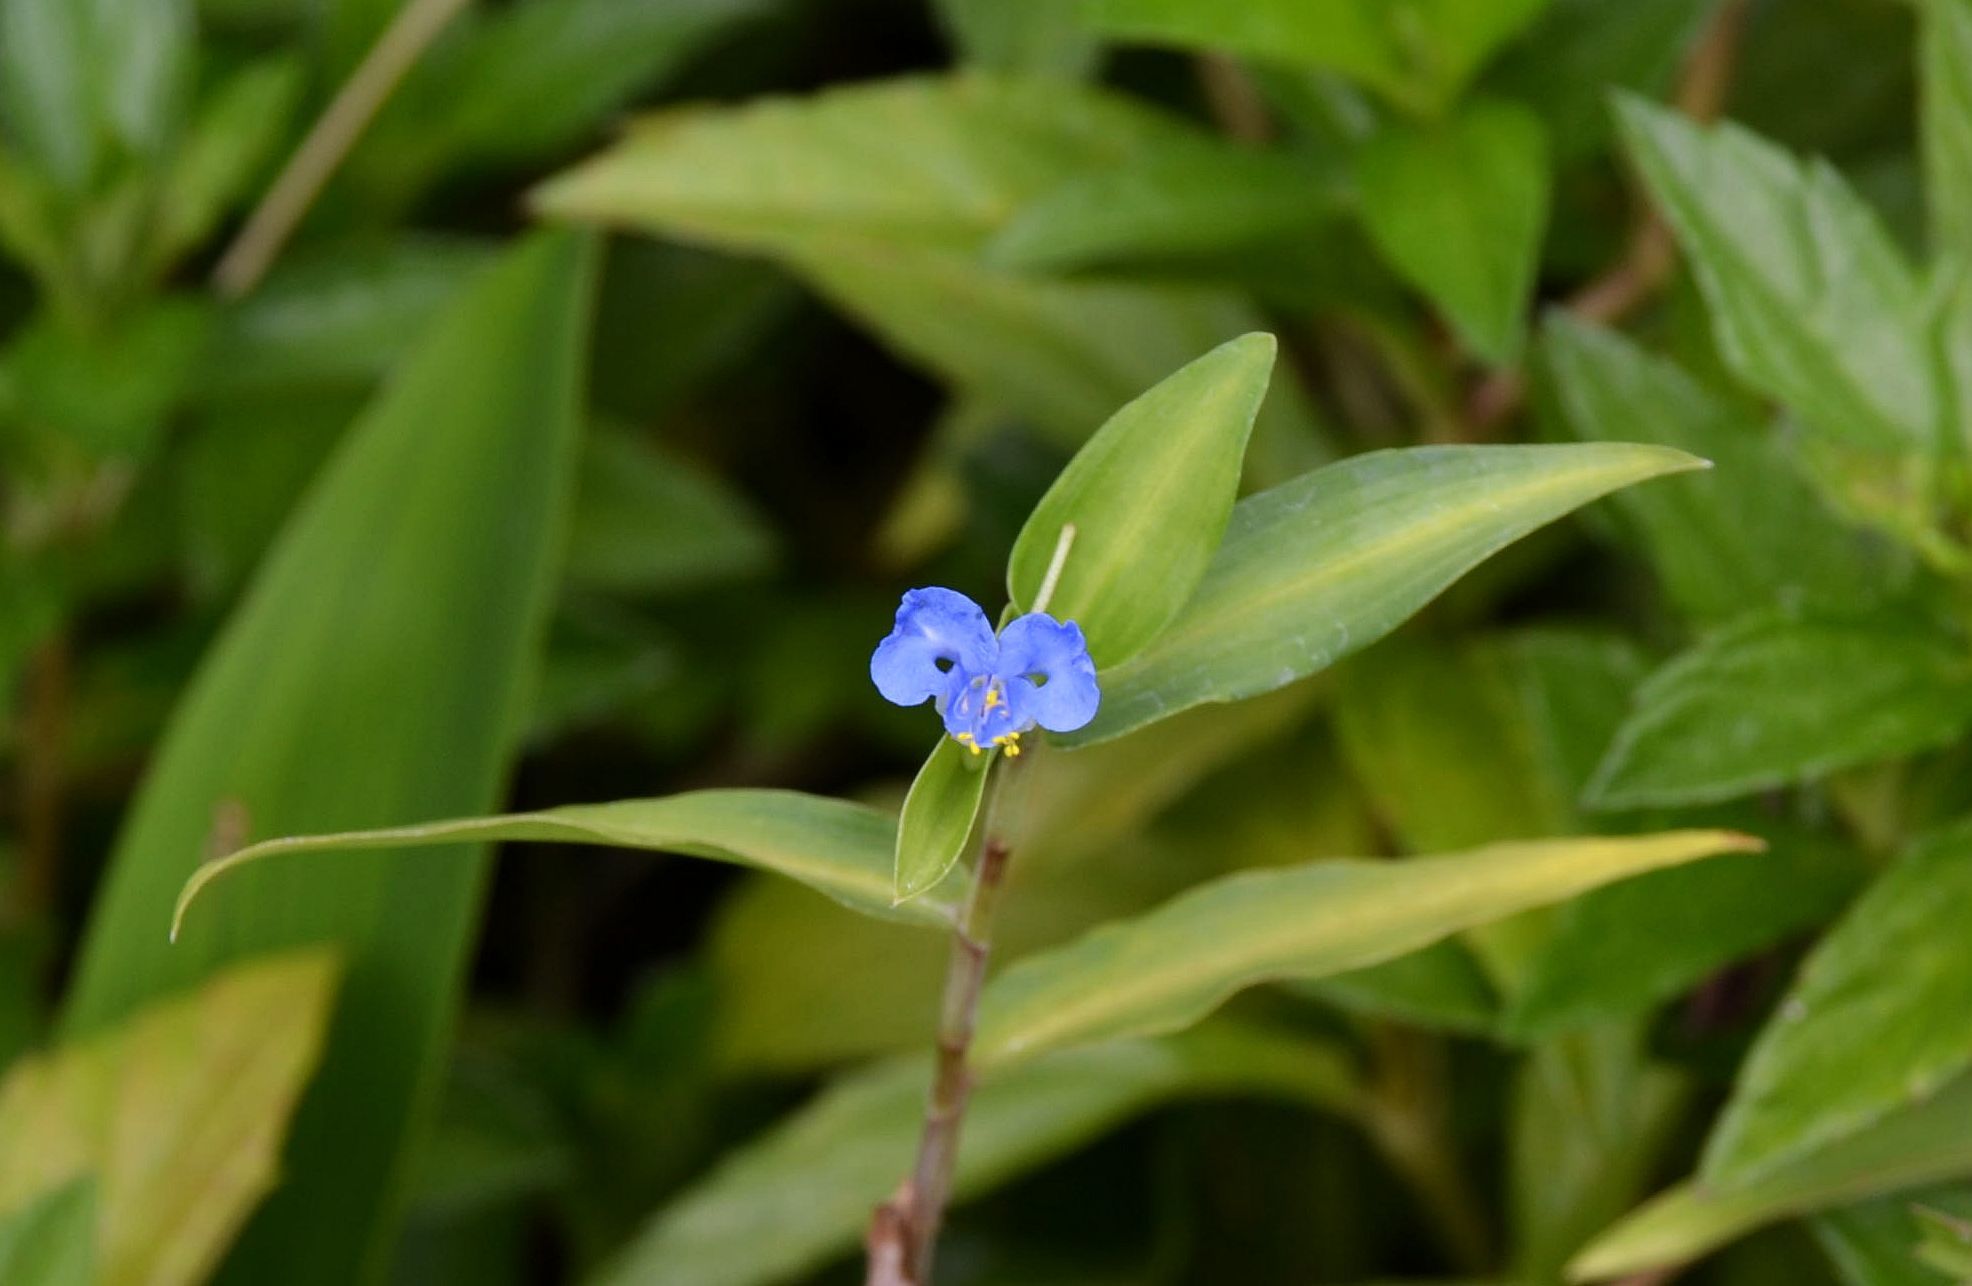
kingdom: Plantae
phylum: Tracheophyta
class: Liliopsida
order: Commelinales
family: Commelinaceae
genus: Commelina
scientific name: Commelina diffusa
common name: Climbing dayflower
